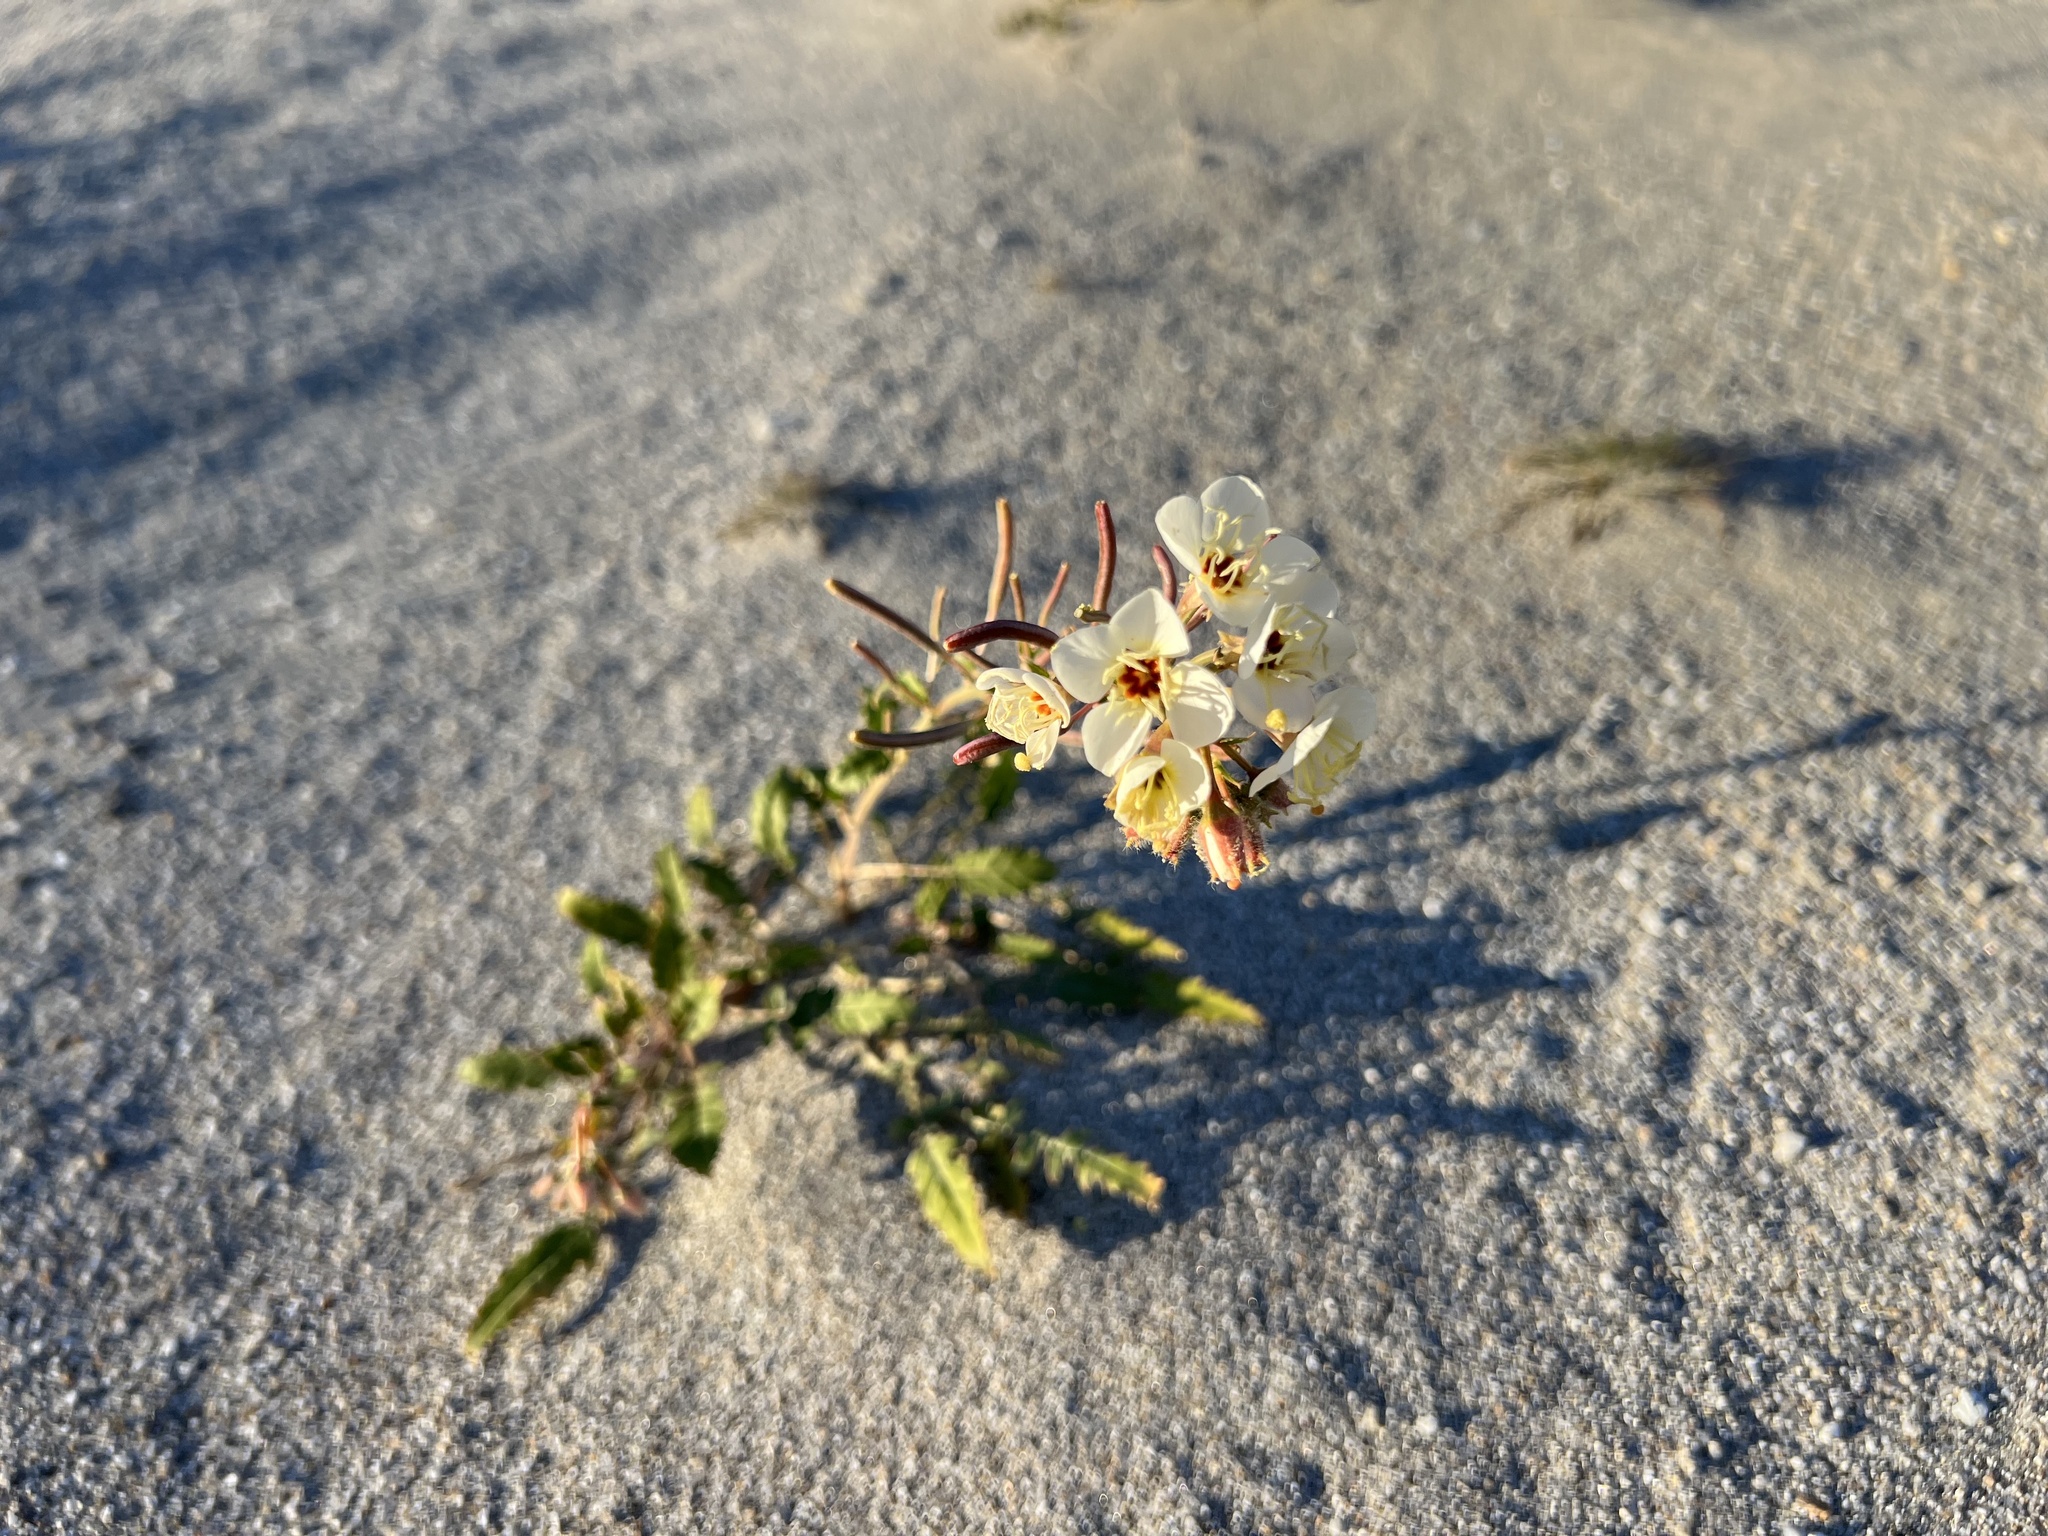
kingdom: Plantae
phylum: Tracheophyta
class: Magnoliopsida
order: Myrtales
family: Onagraceae
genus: Chylismia
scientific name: Chylismia claviformis
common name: Browneyes
